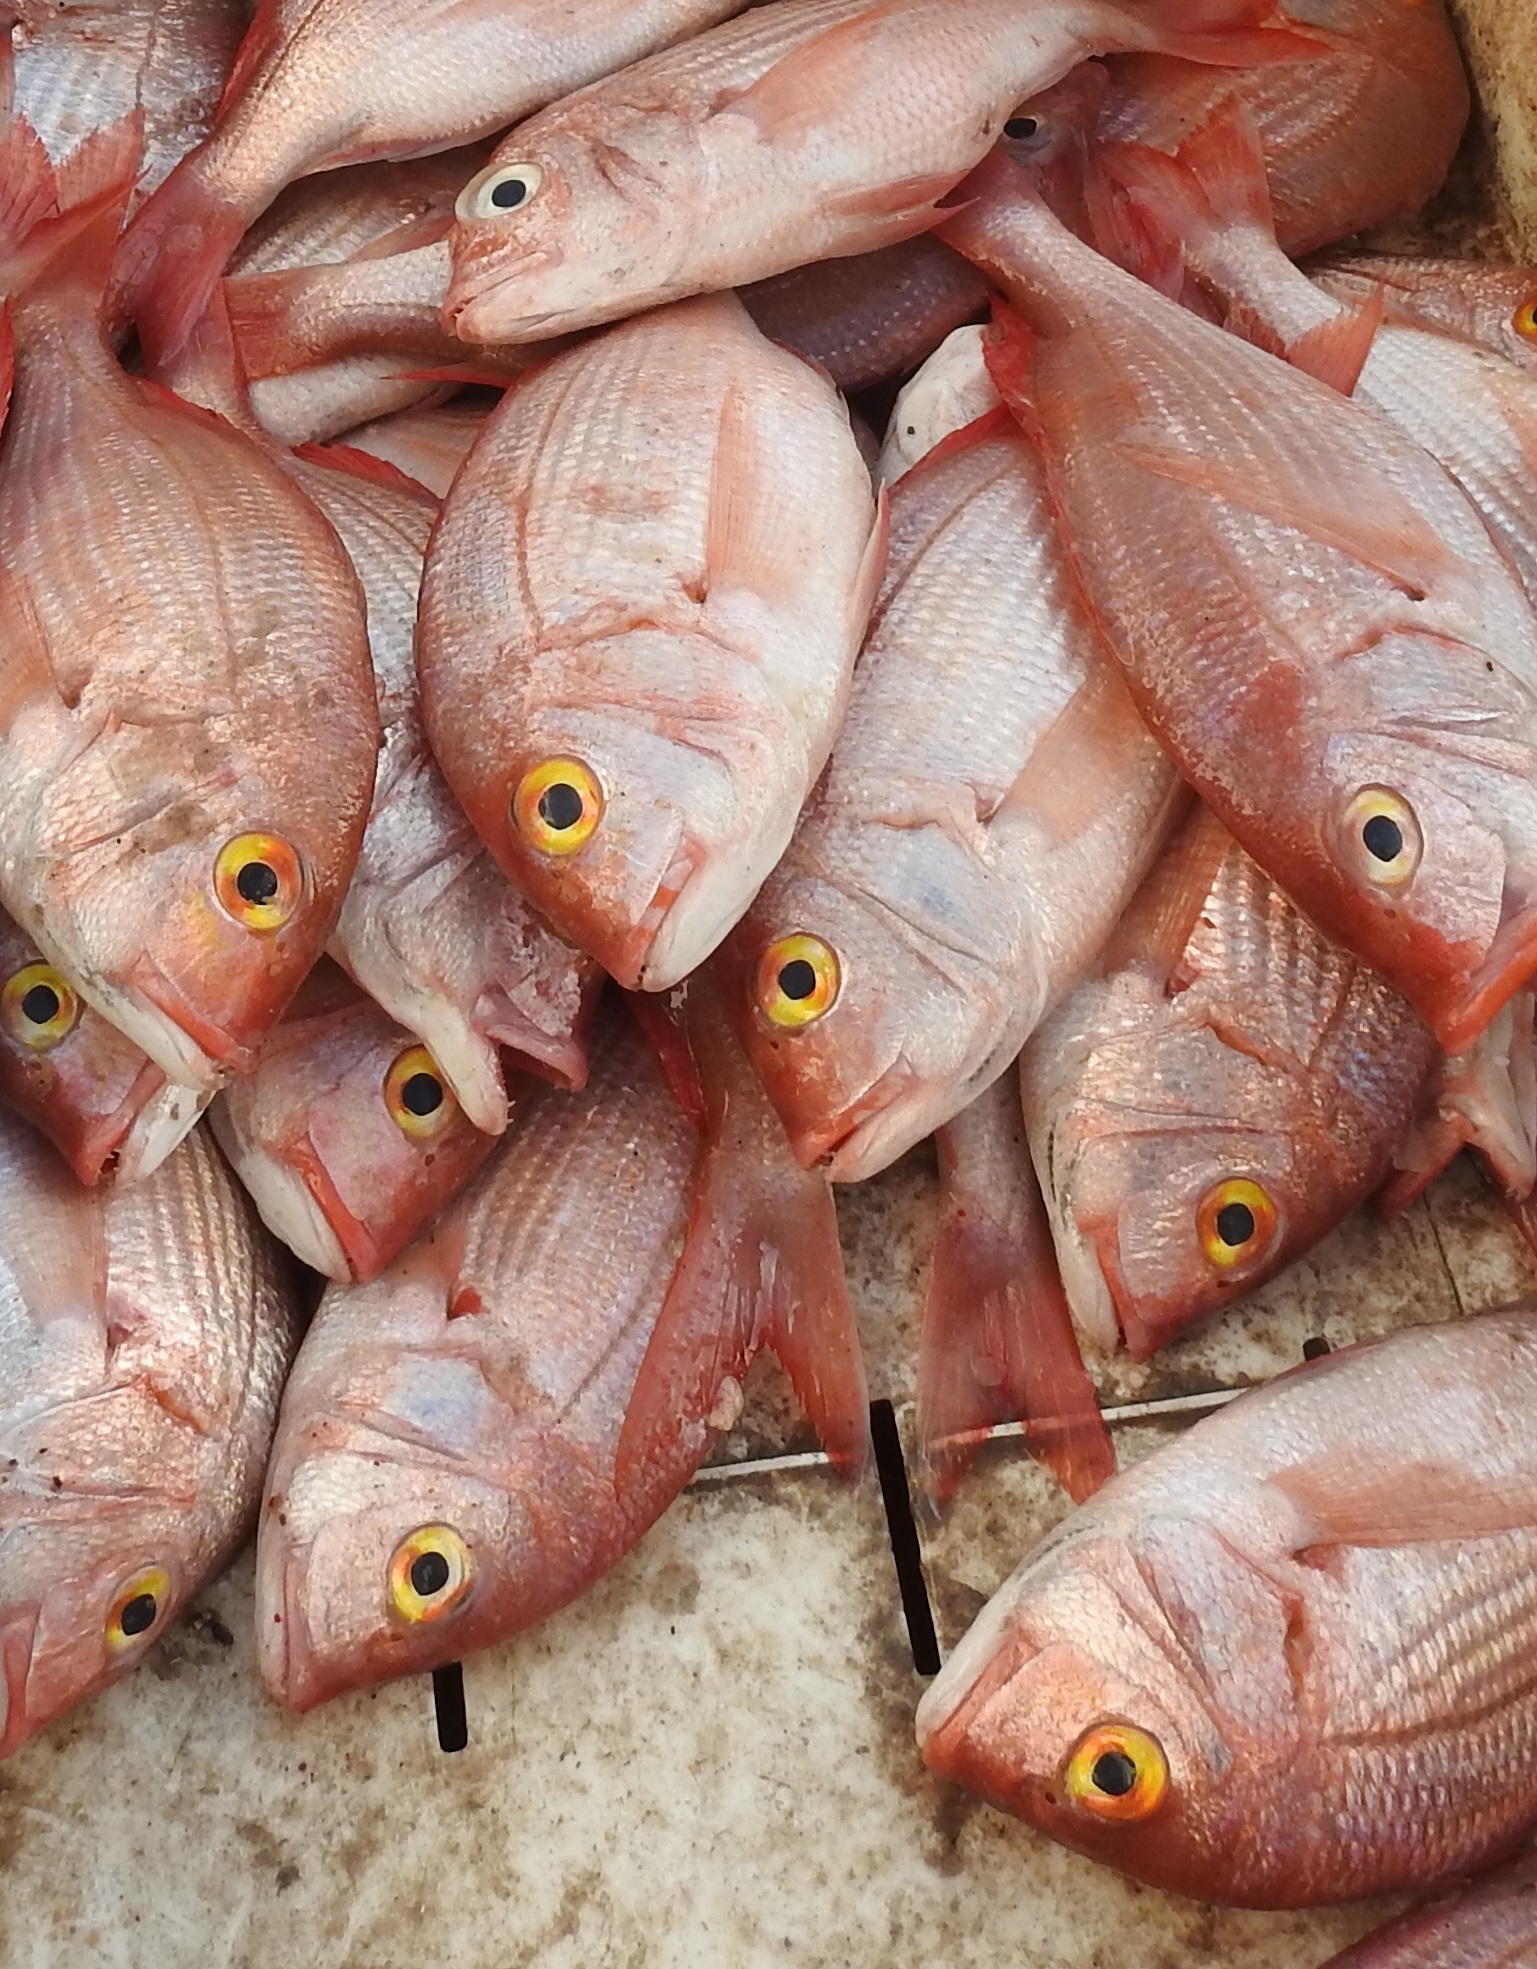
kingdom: Animalia
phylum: Chordata
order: Perciformes
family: Sparidae
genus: Dentex
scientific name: Dentex maroccanus
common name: Morocco dentex
